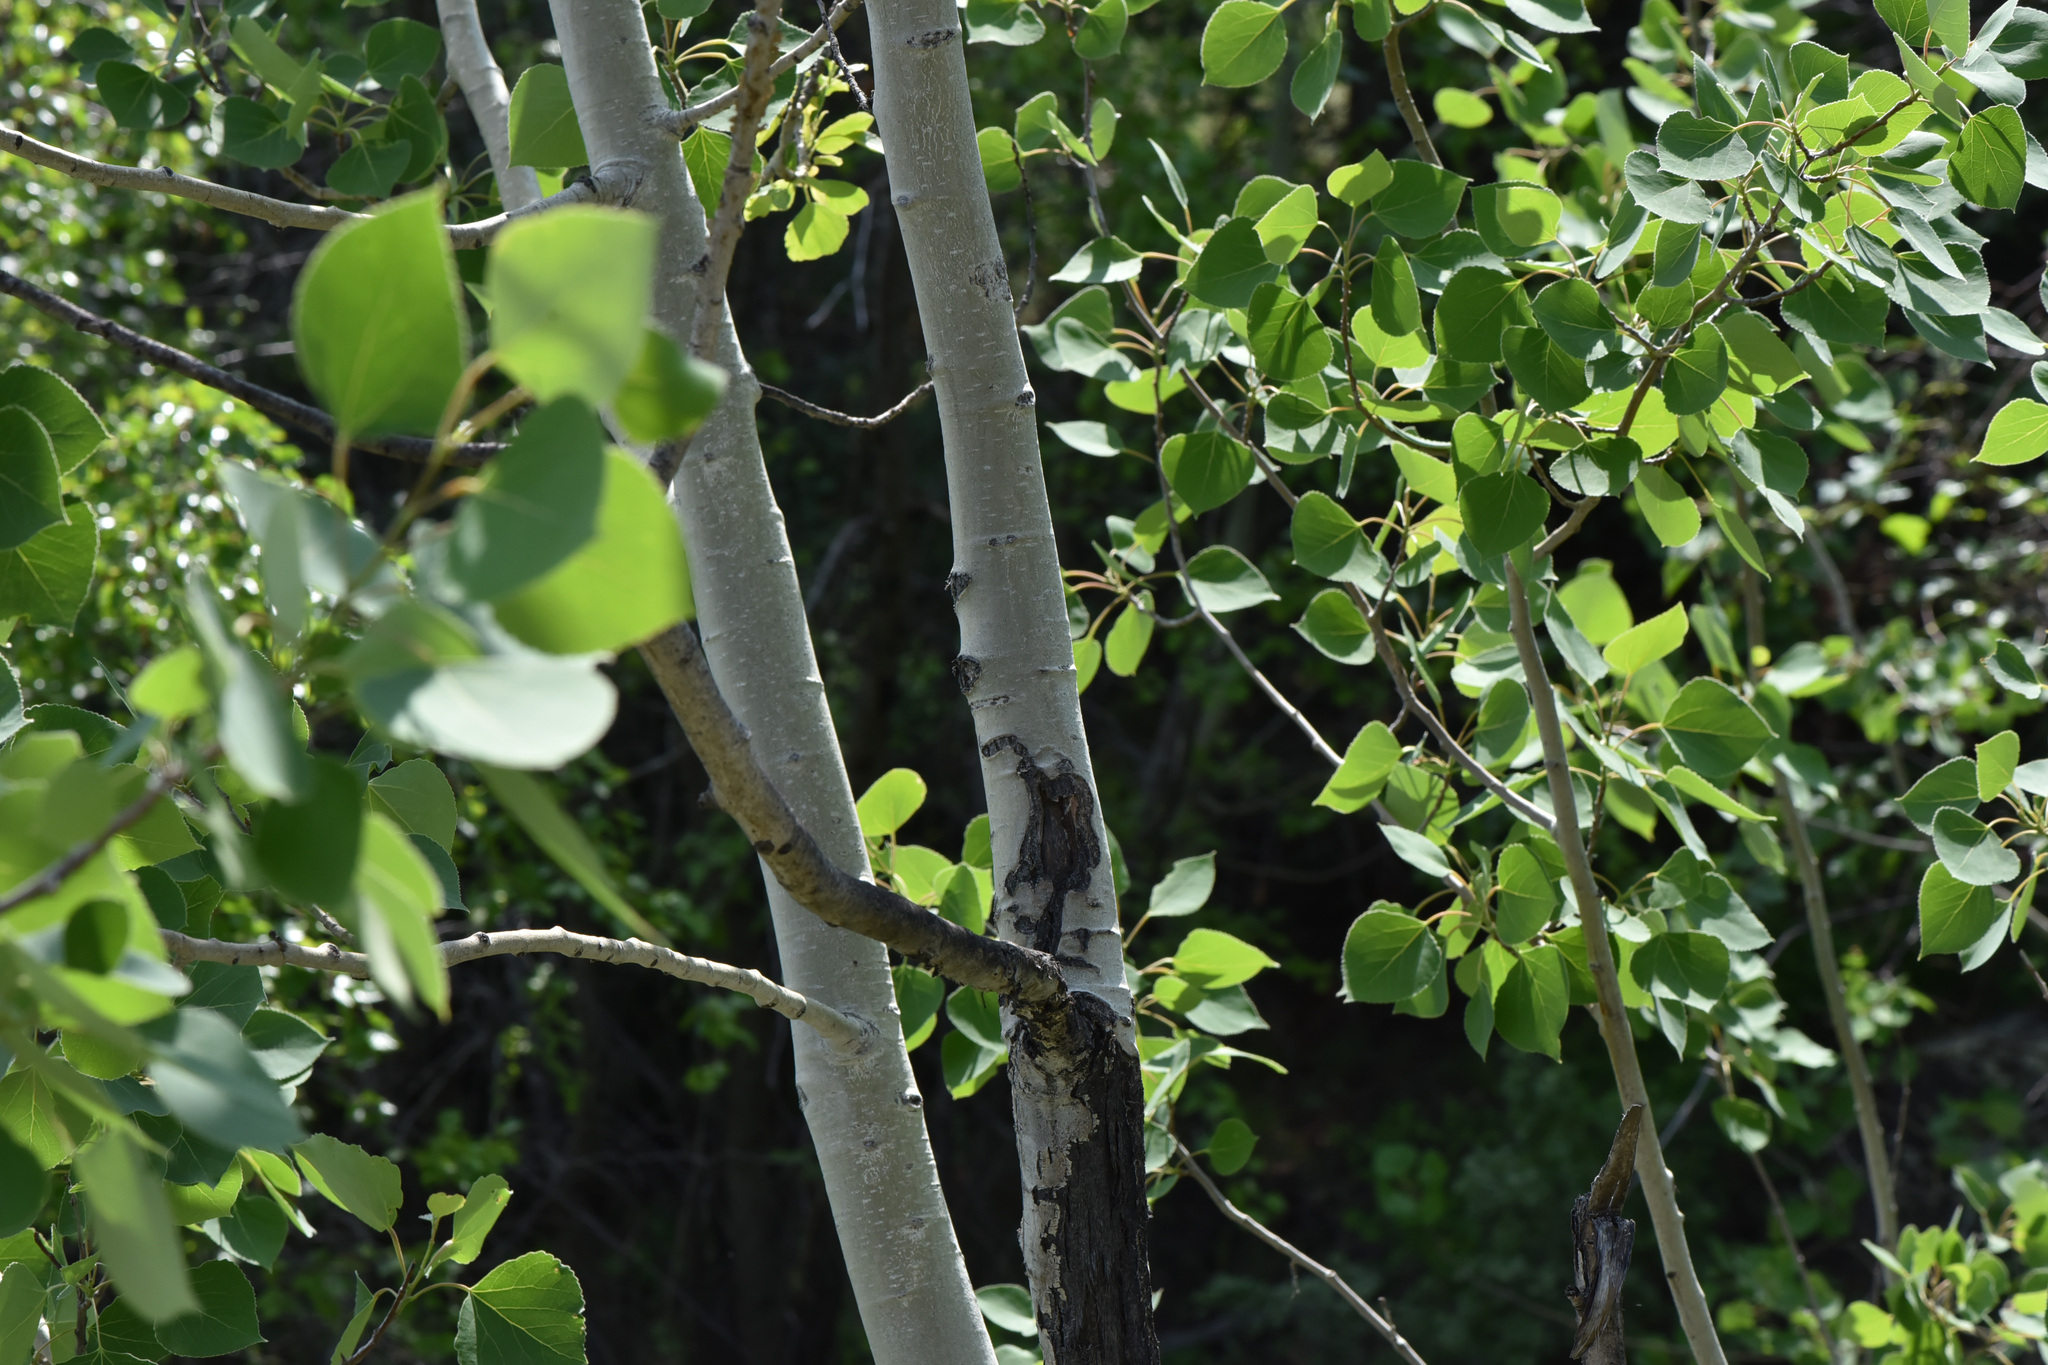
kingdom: Plantae
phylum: Tracheophyta
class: Magnoliopsida
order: Malpighiales
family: Salicaceae
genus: Populus
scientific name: Populus tremuloides
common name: Quaking aspen
